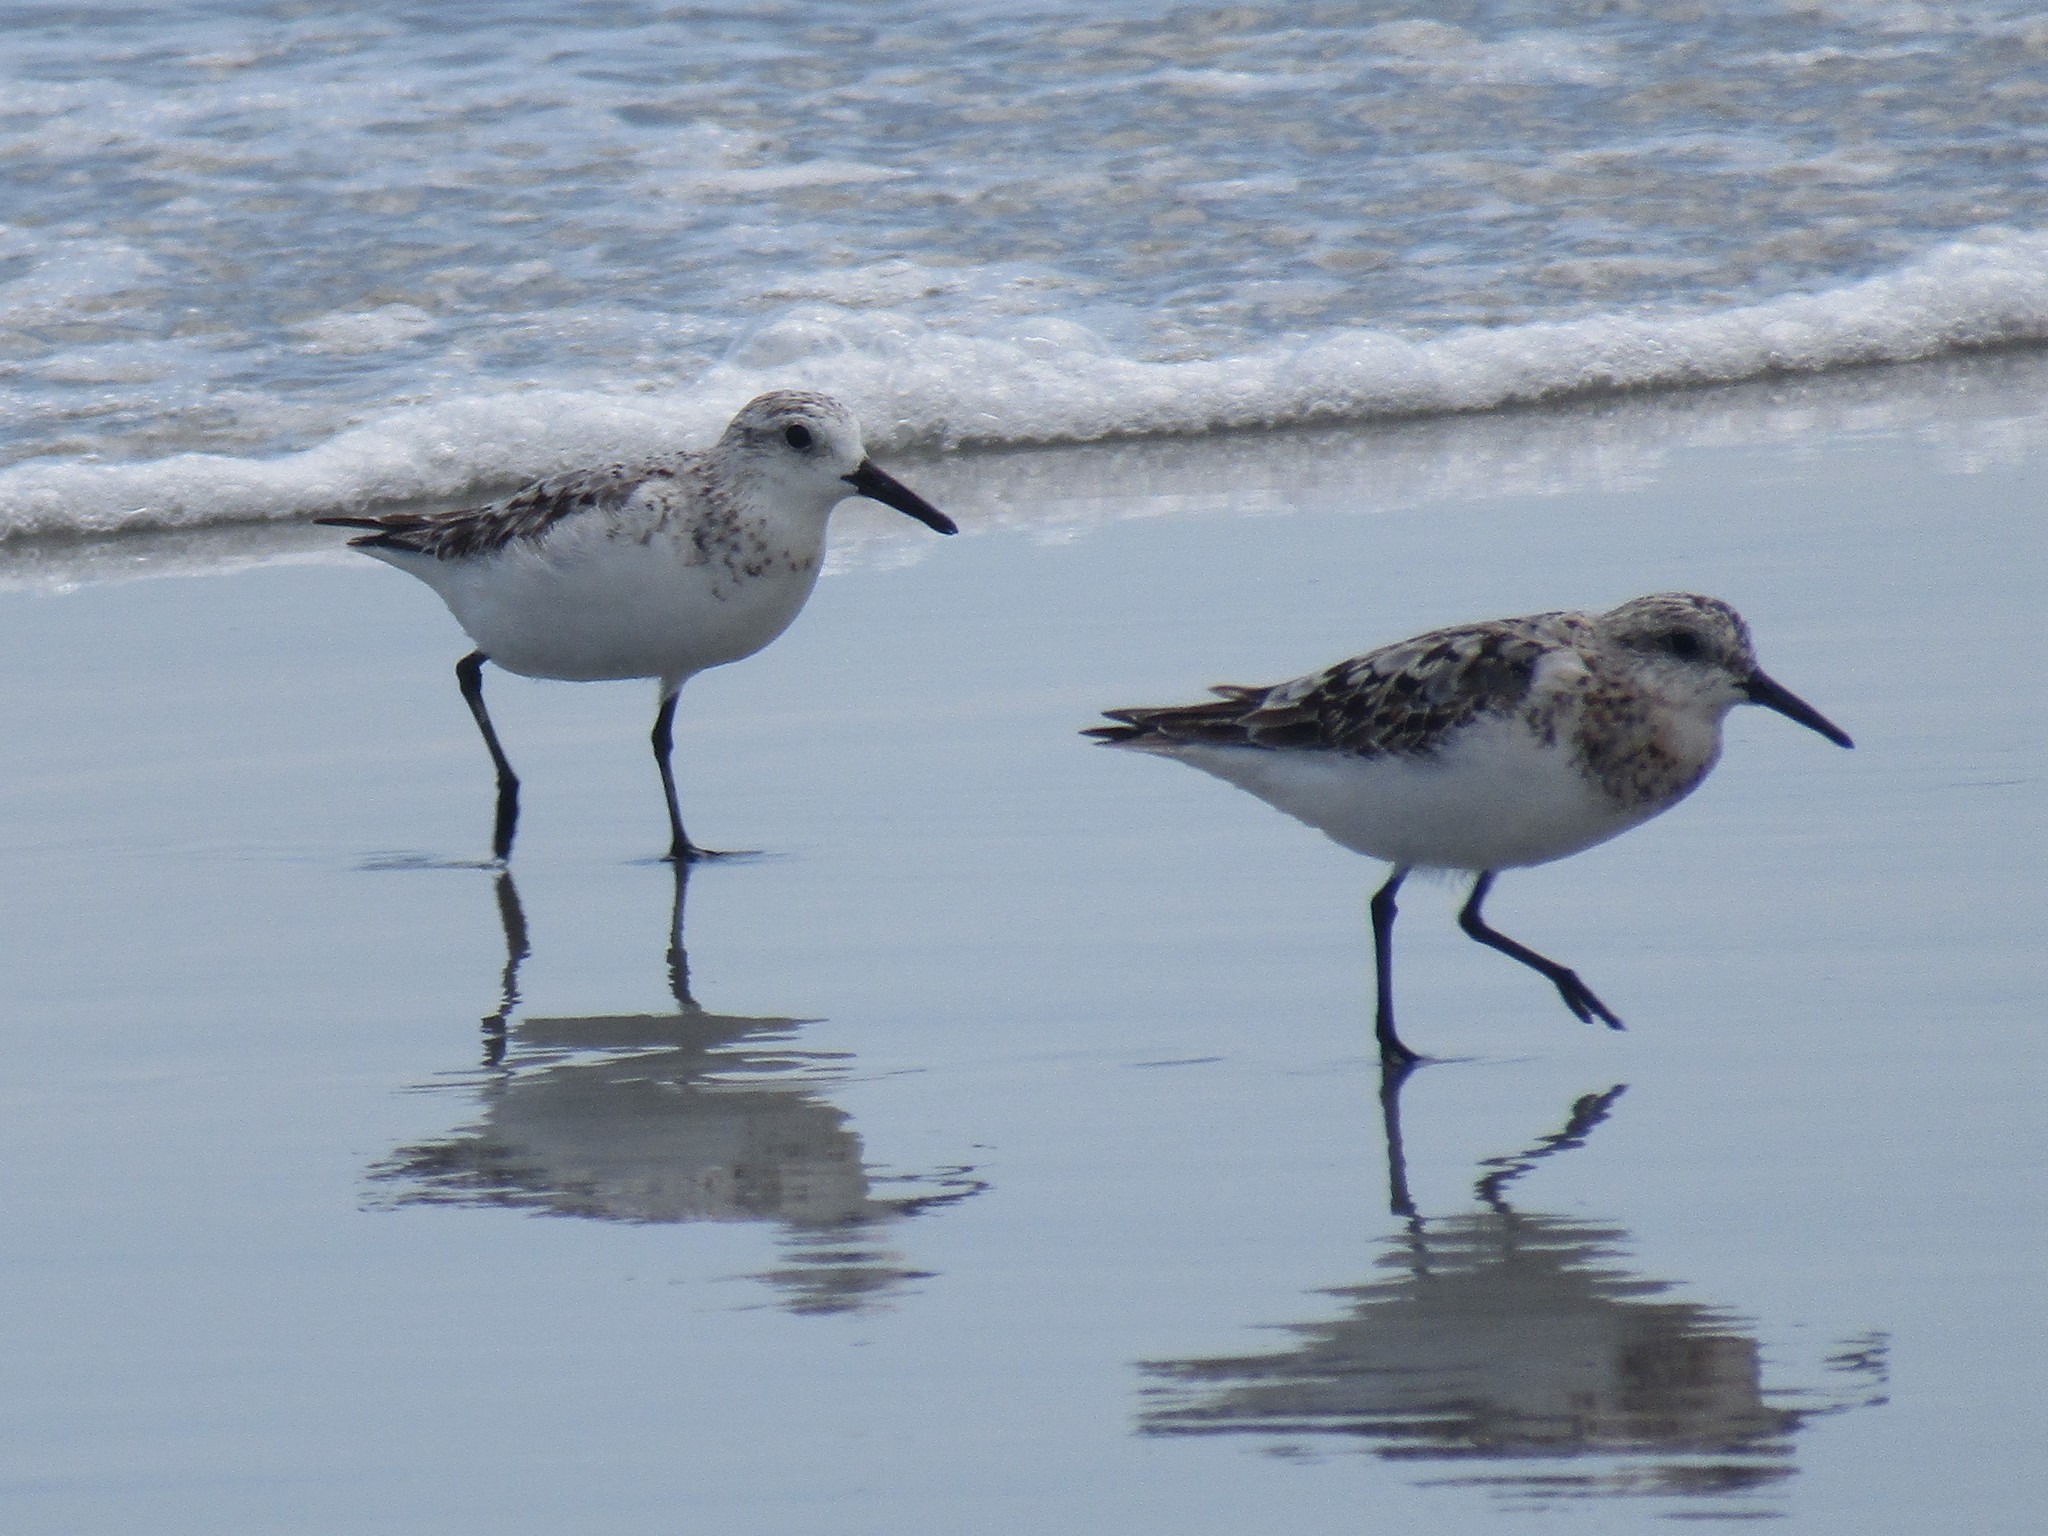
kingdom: Animalia
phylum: Chordata
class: Aves
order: Charadriiformes
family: Scolopacidae
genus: Calidris
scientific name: Calidris alba
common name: Sanderling
